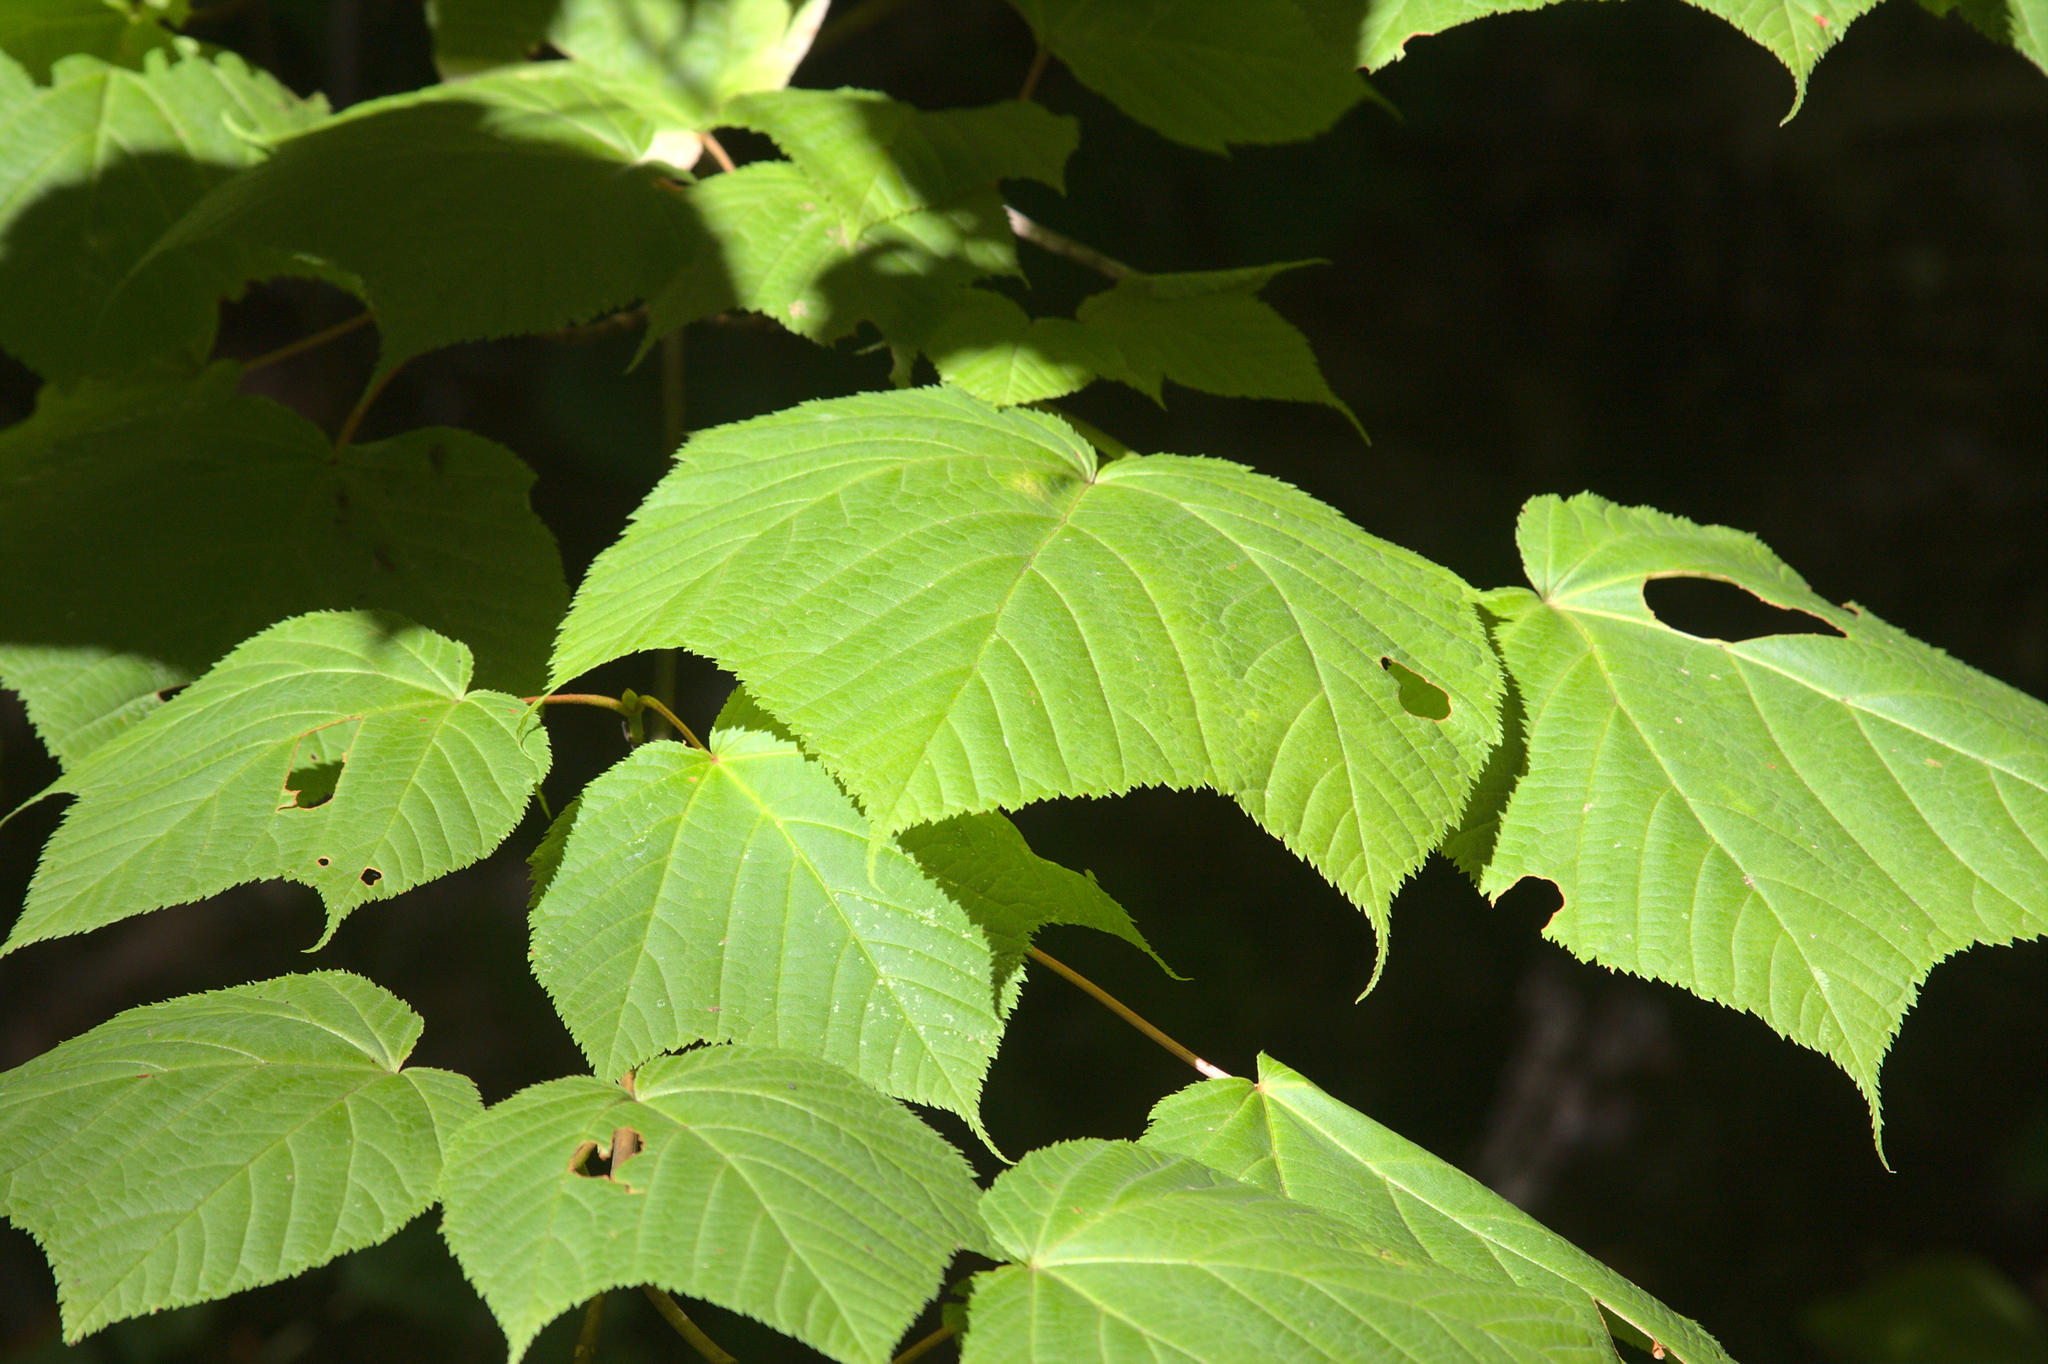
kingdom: Plantae
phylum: Tracheophyta
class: Magnoliopsida
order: Sapindales
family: Sapindaceae
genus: Acer
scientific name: Acer pensylvanicum
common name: Moosewood
